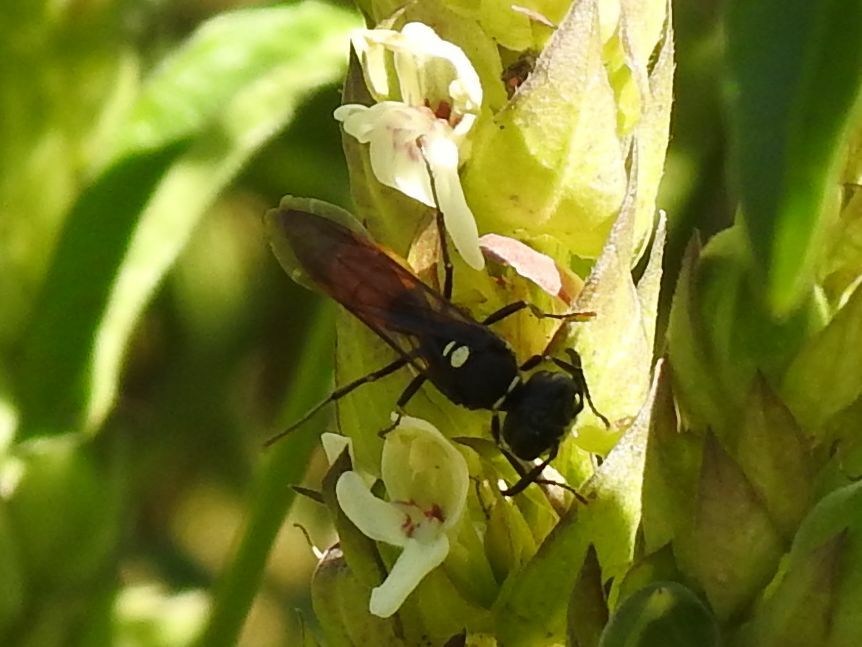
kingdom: Animalia
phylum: Arthropoda
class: Insecta
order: Hymenoptera
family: Crabronidae
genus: Philanthus
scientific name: Philanthus loeflingi
